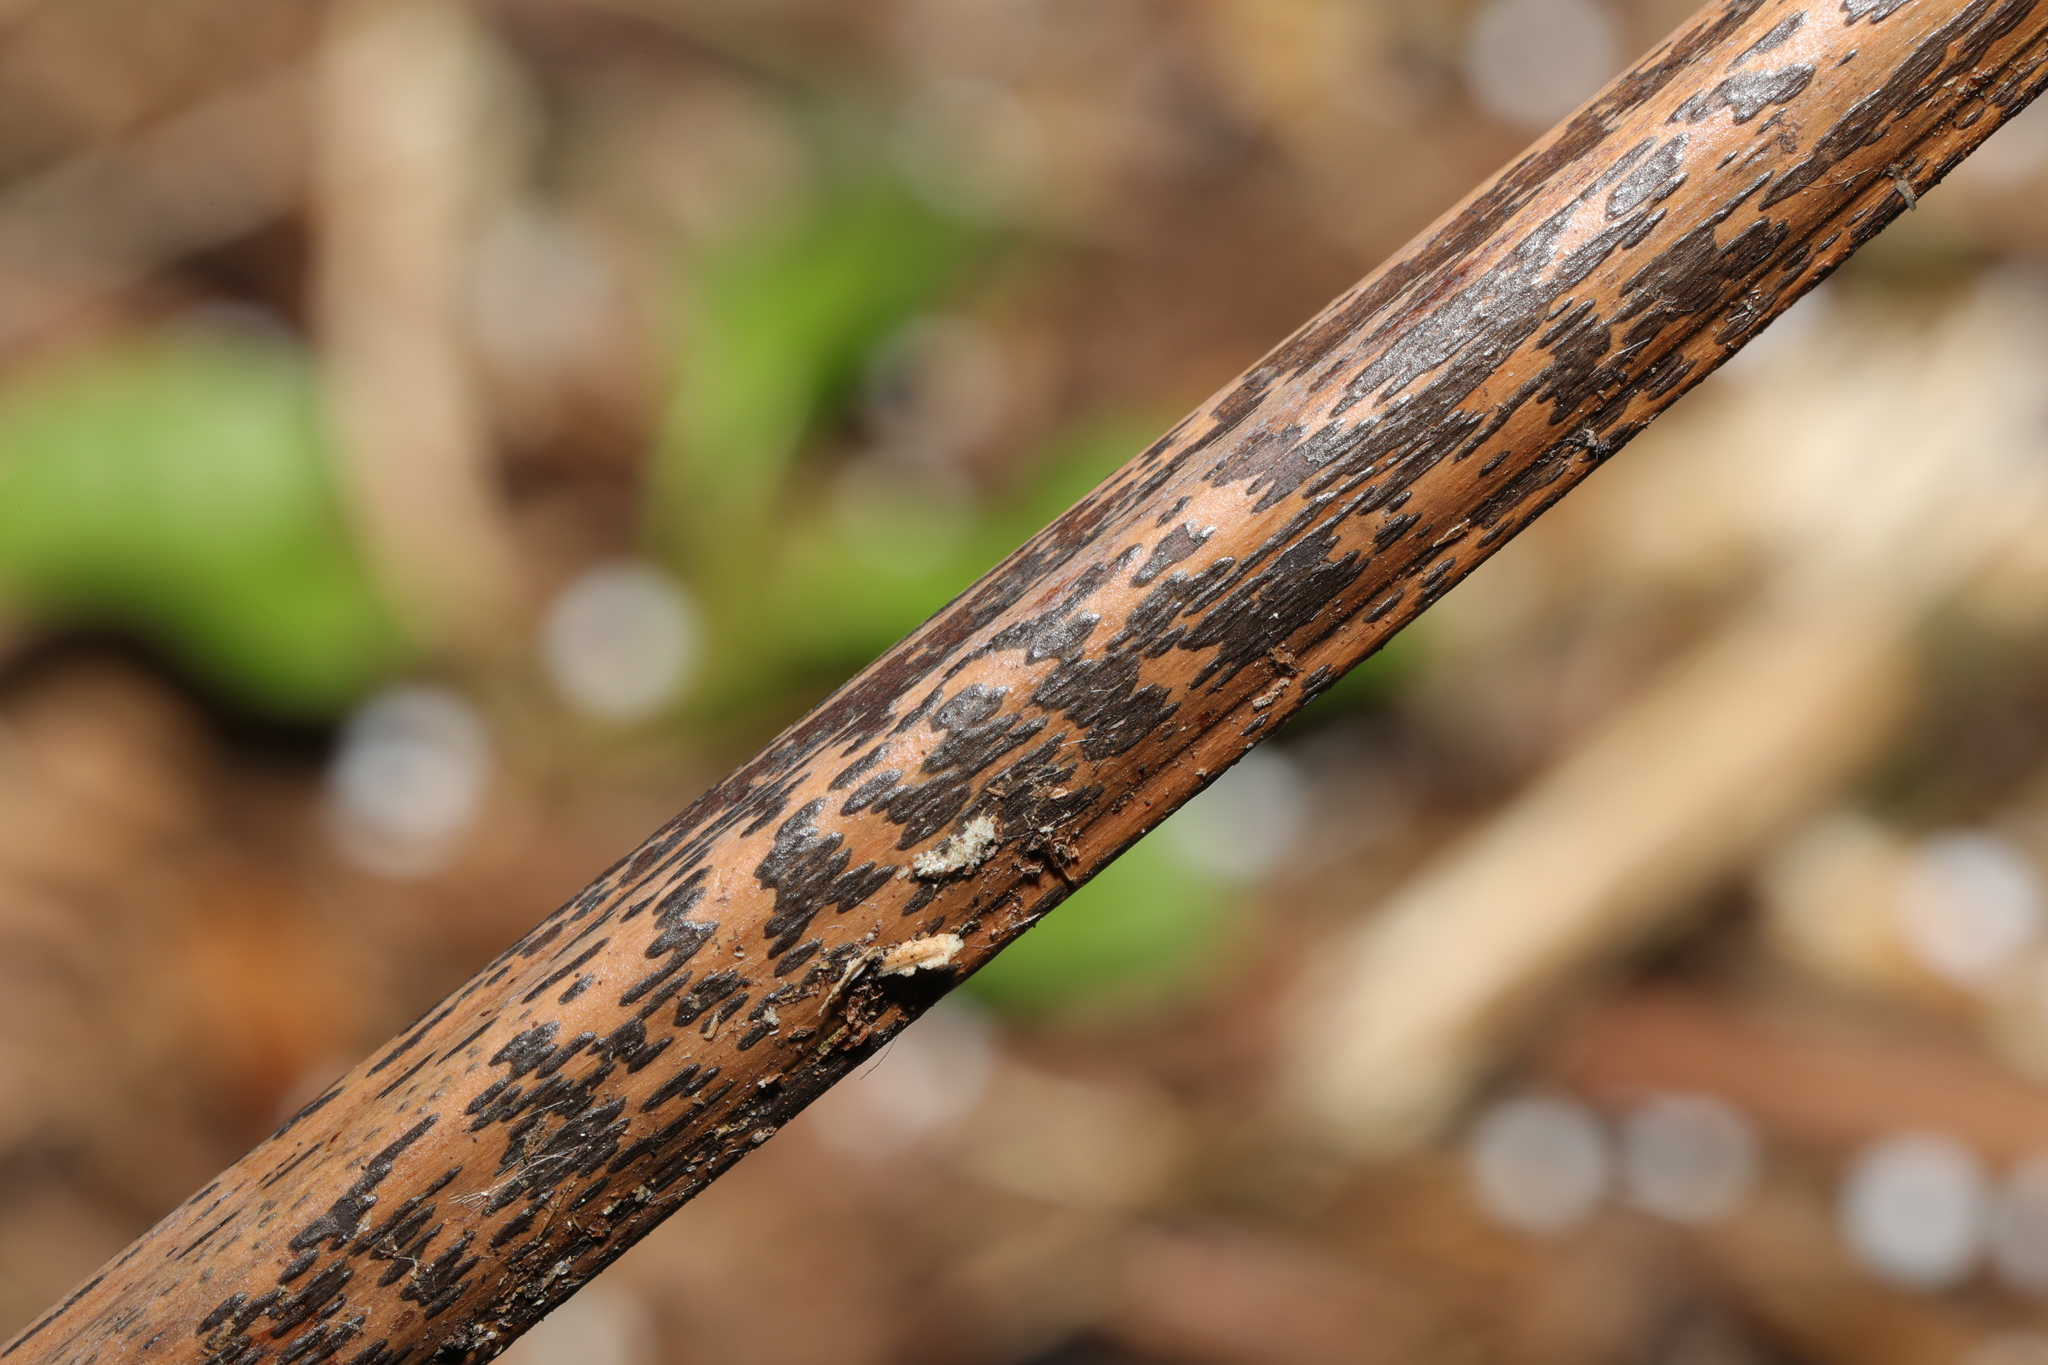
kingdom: Fungi
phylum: Ascomycota
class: Dothideomycetes
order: Pleosporales
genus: Rhopographus
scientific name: Rhopographus filicinus
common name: Bracken map
